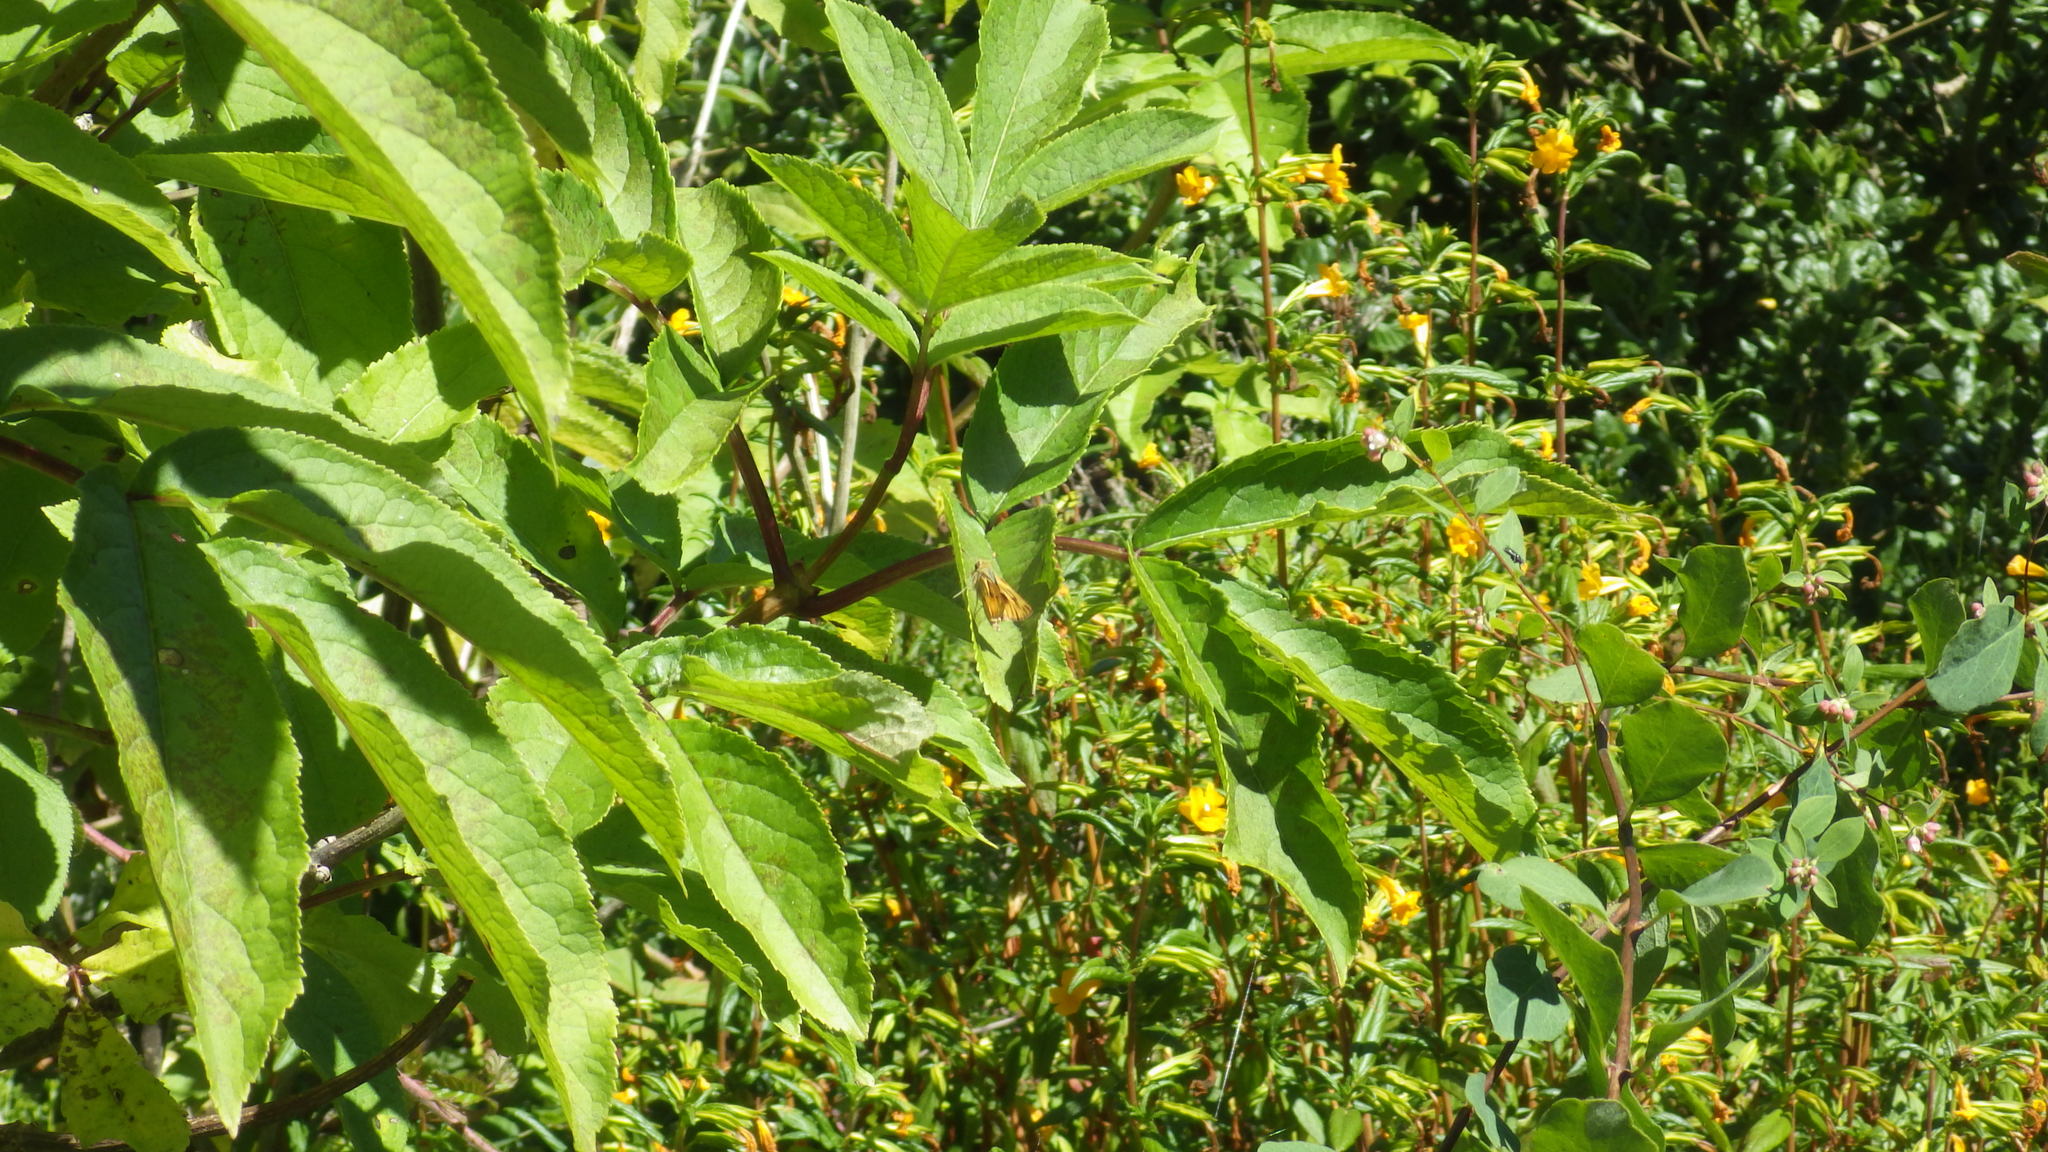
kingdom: Animalia
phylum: Arthropoda
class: Insecta
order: Lepidoptera
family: Hesperiidae
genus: Hylephila
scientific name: Hylephila phyleus
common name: Fiery skipper
